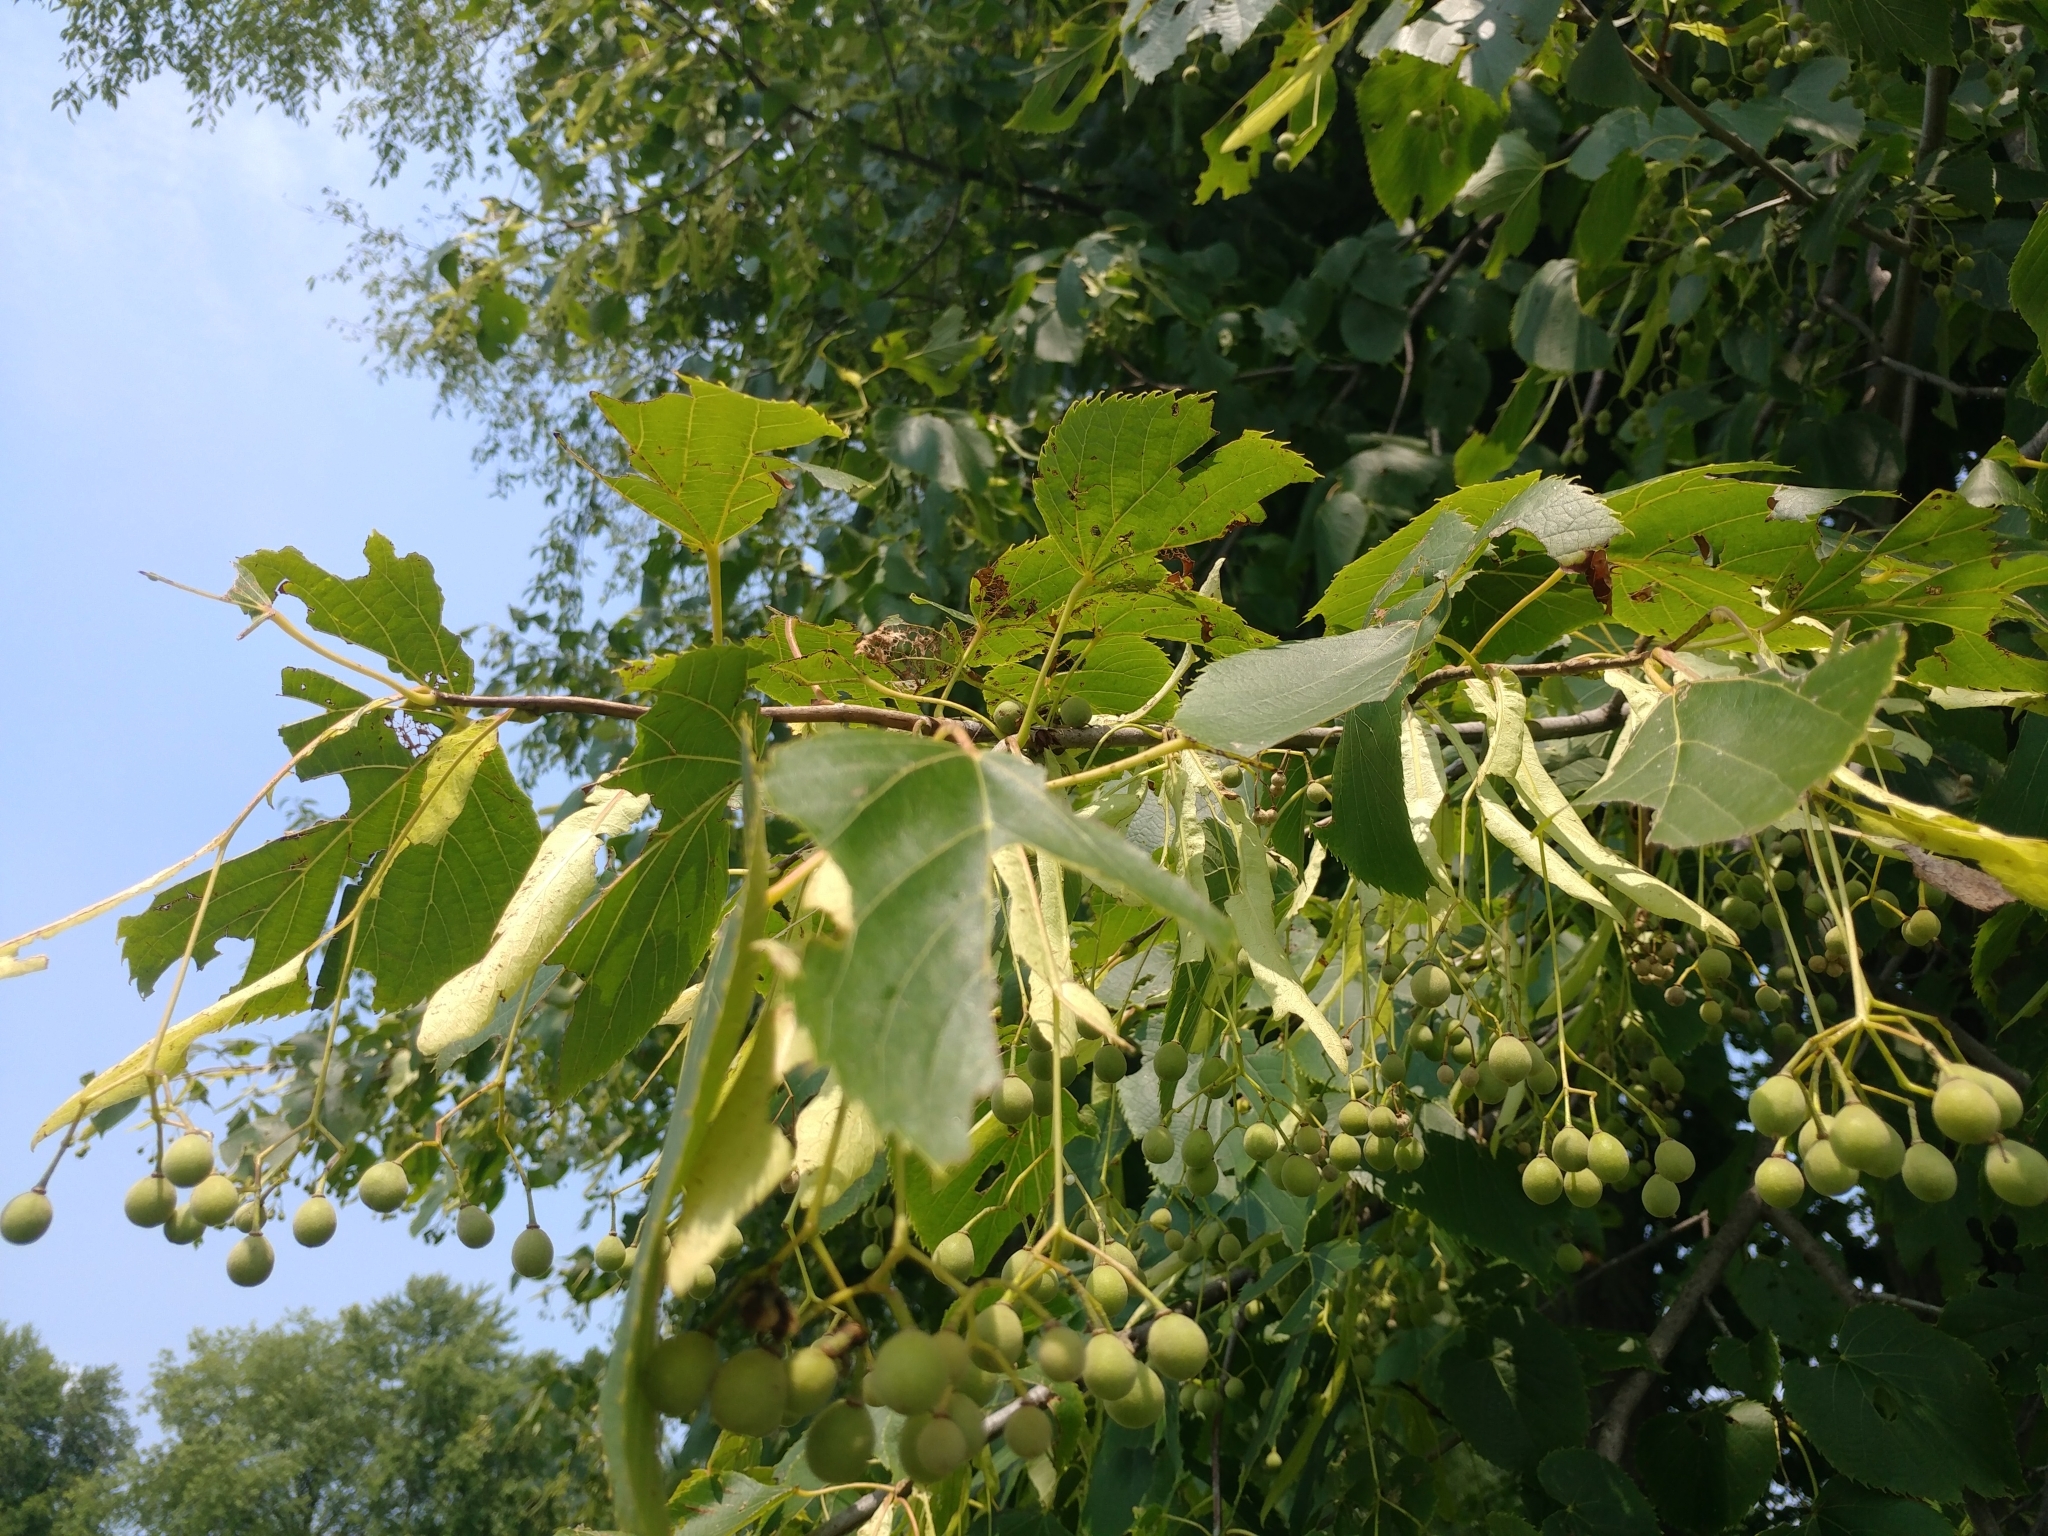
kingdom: Plantae
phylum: Tracheophyta
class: Magnoliopsida
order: Malvales
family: Malvaceae
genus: Tilia
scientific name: Tilia cordata
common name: Small-leaved lime
